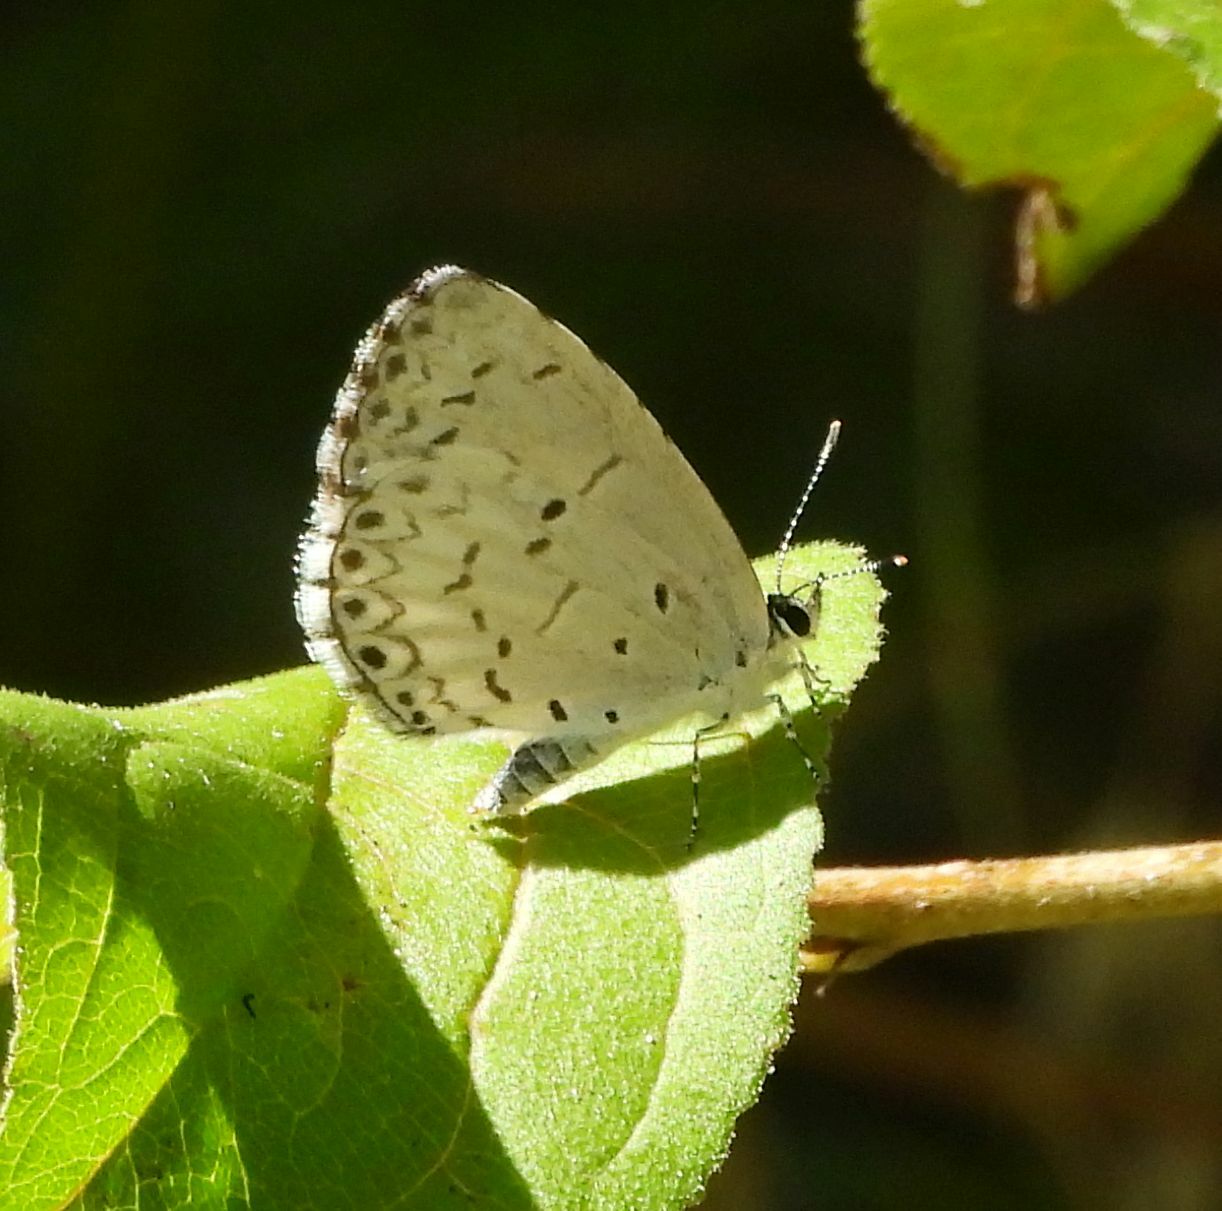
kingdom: Animalia
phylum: Arthropoda
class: Insecta
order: Lepidoptera
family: Lycaenidae
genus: Celastrina
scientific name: Celastrina lucia
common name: Lucia azure
